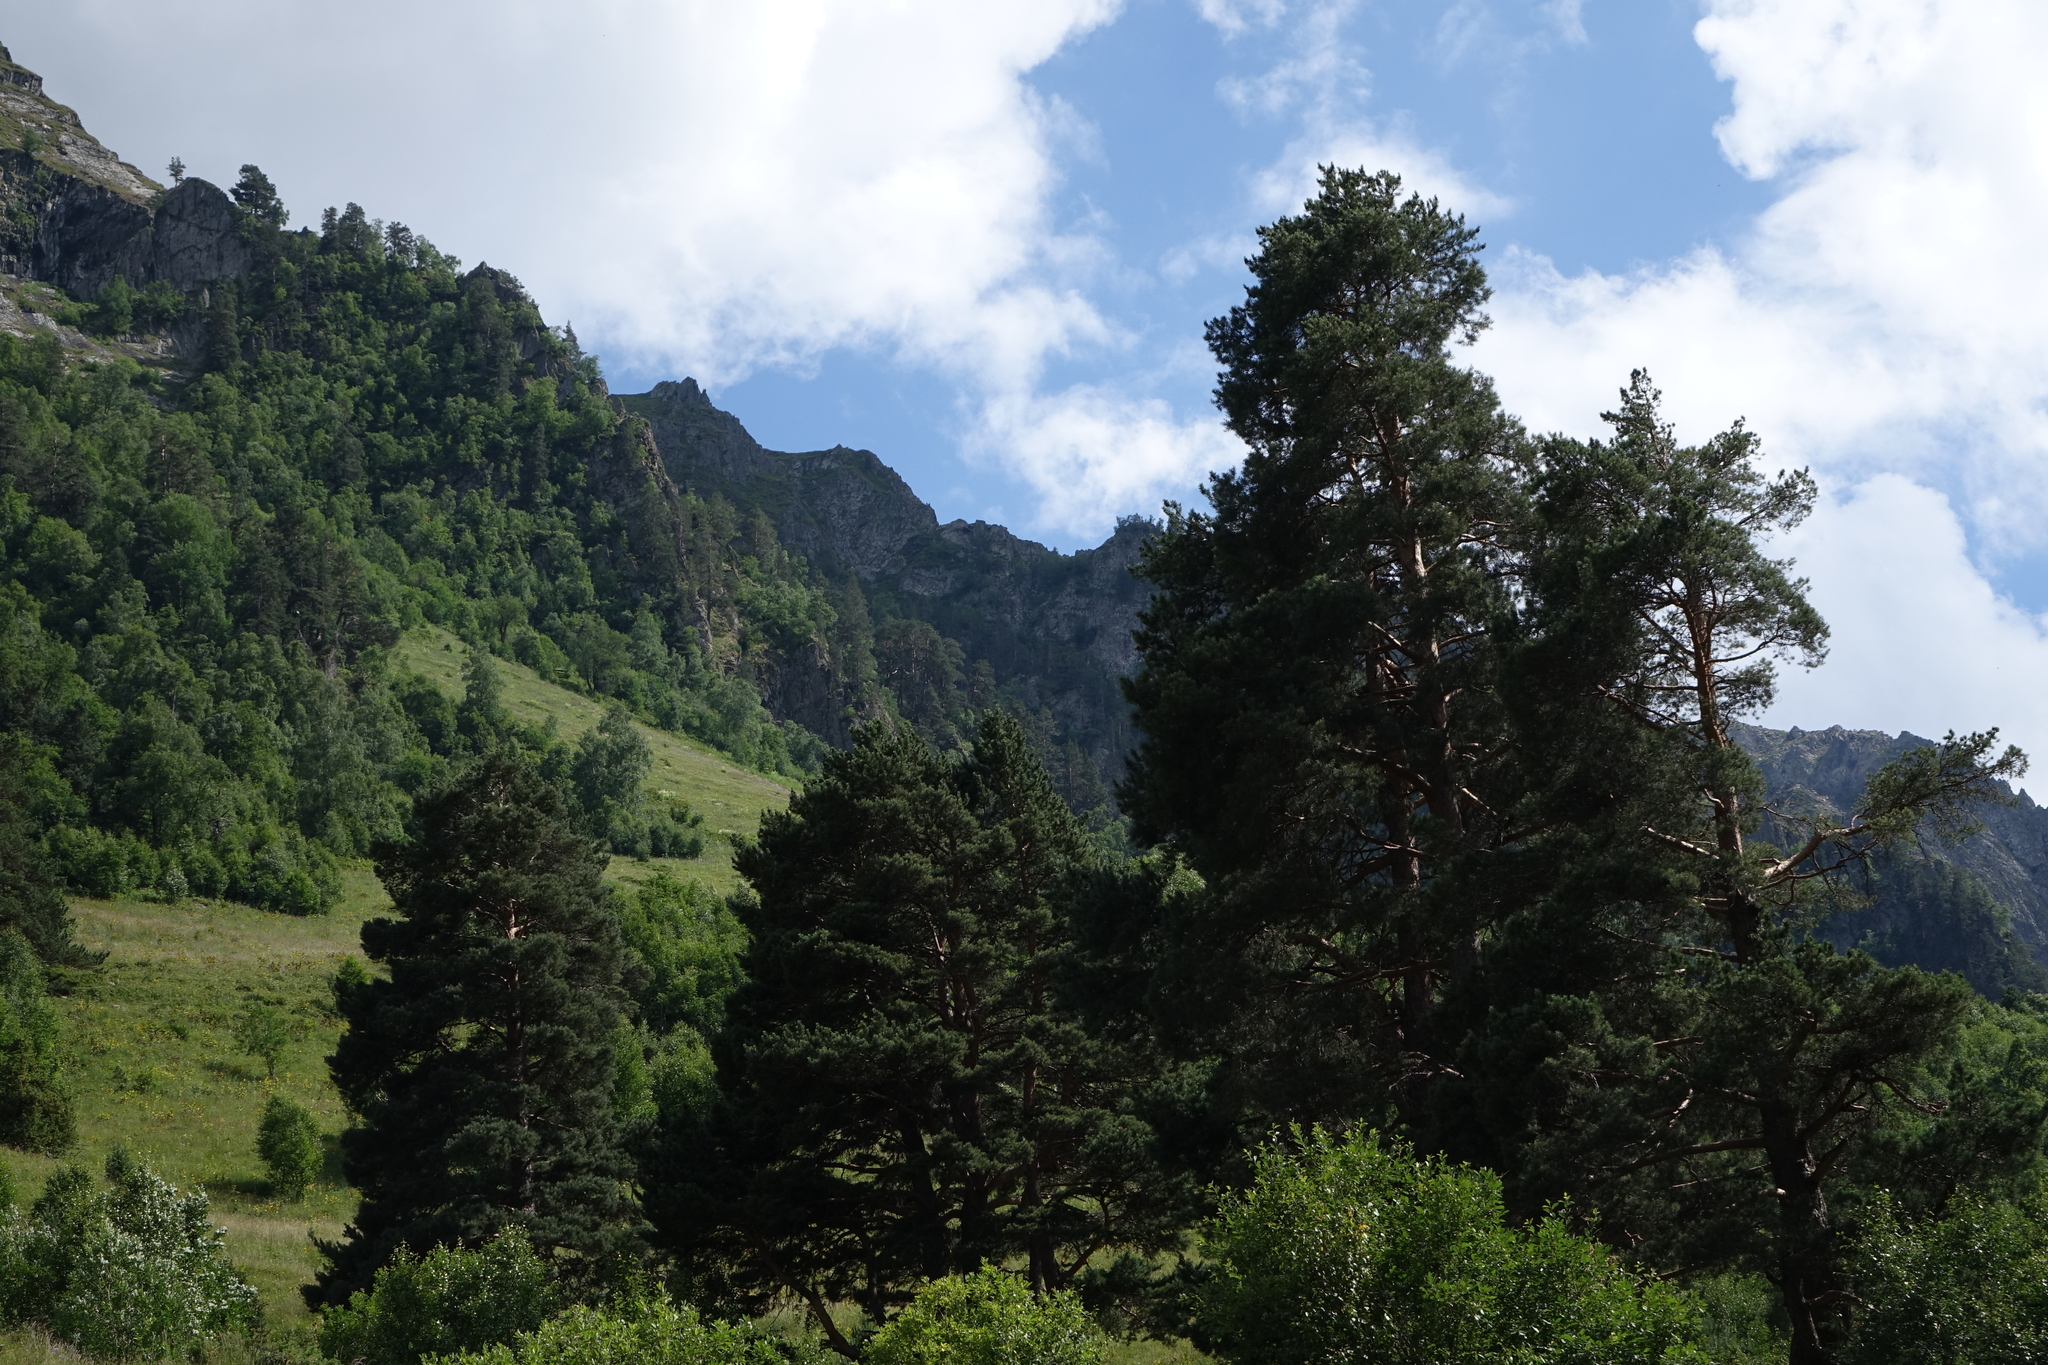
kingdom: Plantae
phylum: Tracheophyta
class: Pinopsida
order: Pinales
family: Pinaceae
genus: Pinus
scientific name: Pinus sylvestris
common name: Scots pine
